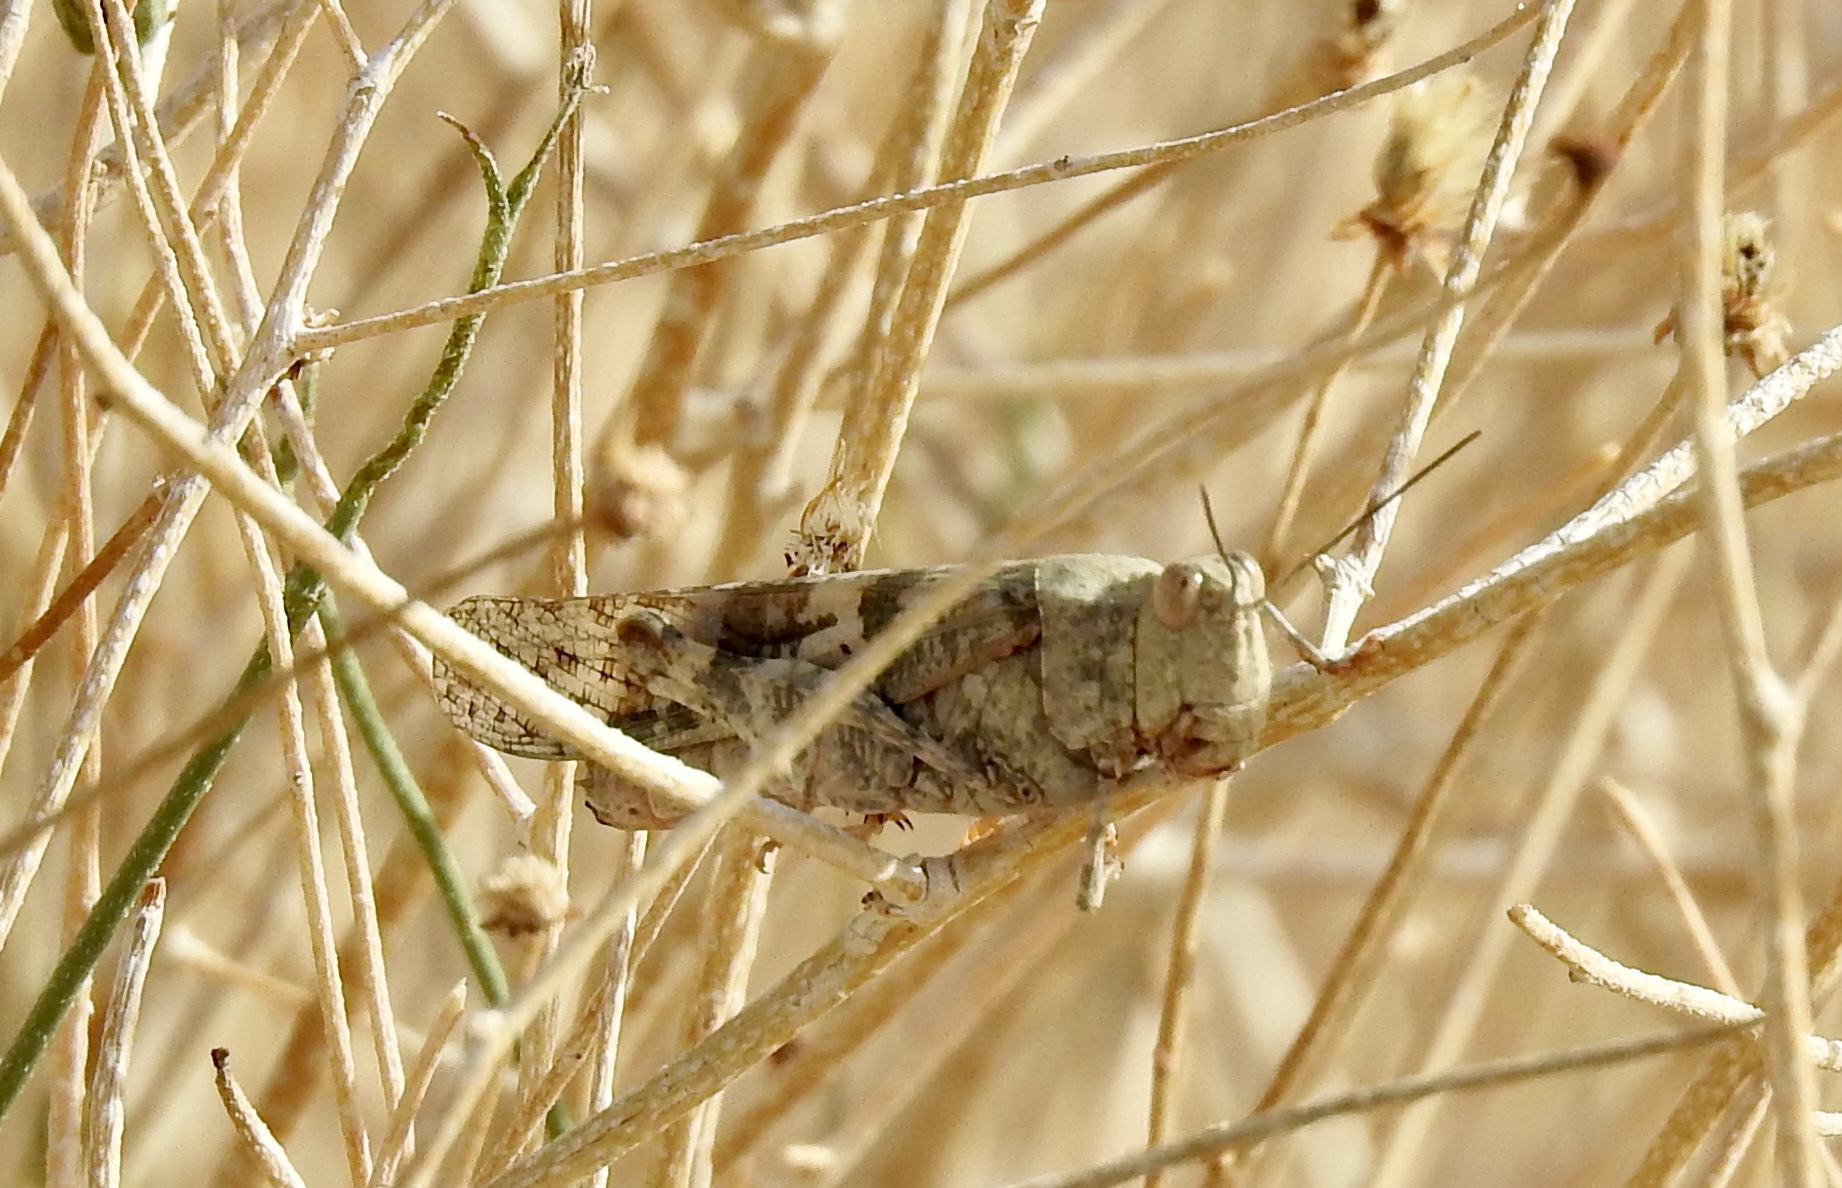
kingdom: Animalia
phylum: Arthropoda
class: Insecta
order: Orthoptera
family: Acrididae
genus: Trimerotropis
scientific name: Trimerotropis pallidipennis
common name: Pallid-winged grasshopper
